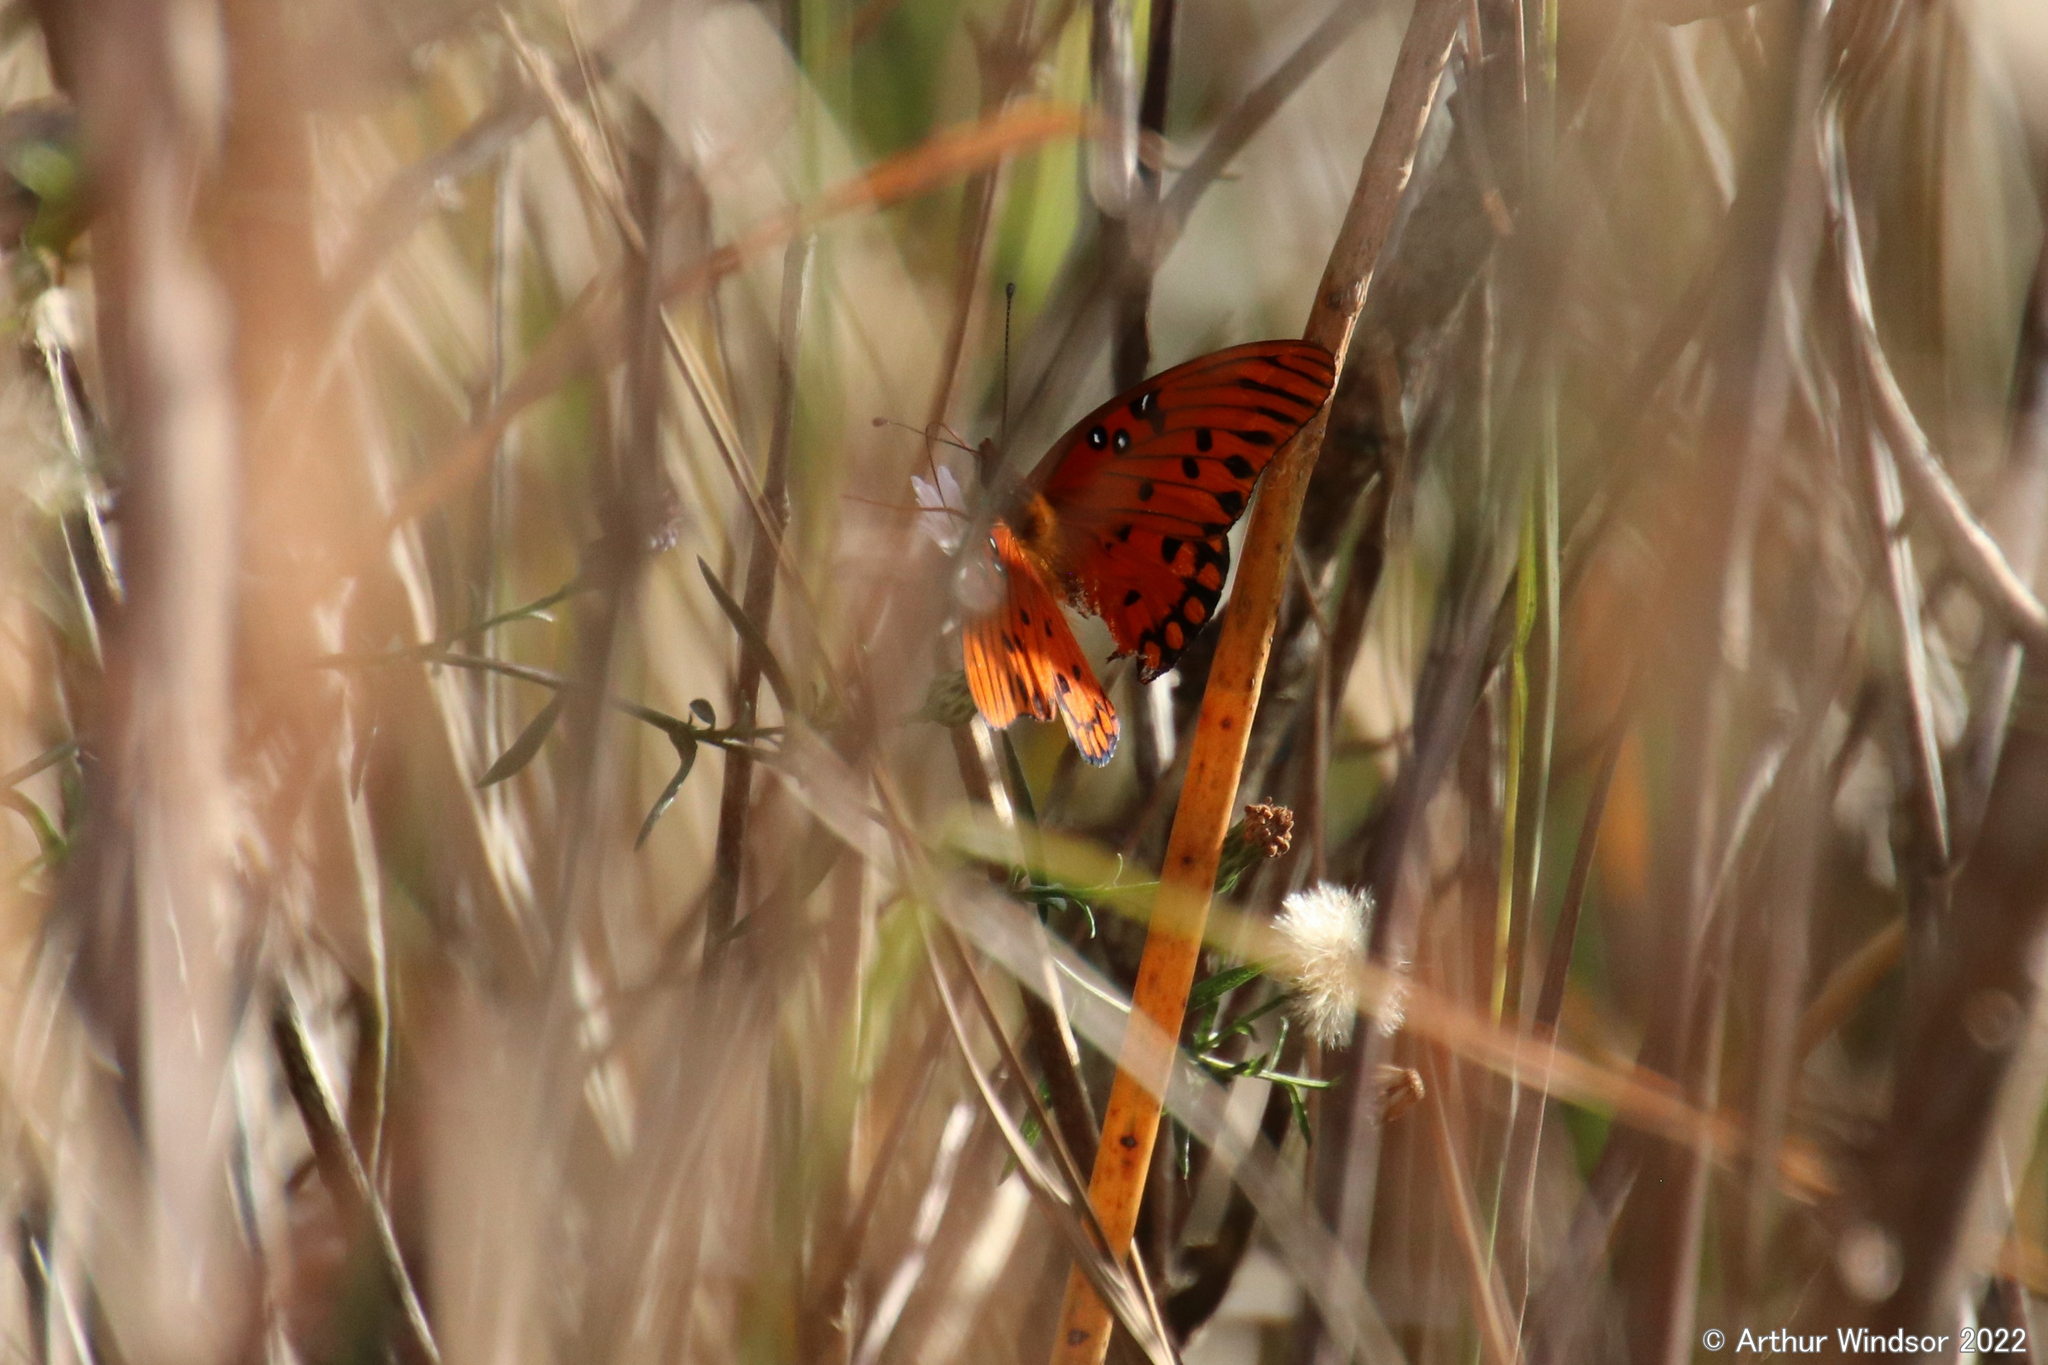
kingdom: Animalia
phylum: Arthropoda
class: Insecta
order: Lepidoptera
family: Nymphalidae
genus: Dione
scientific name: Dione vanillae
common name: Gulf fritillary
